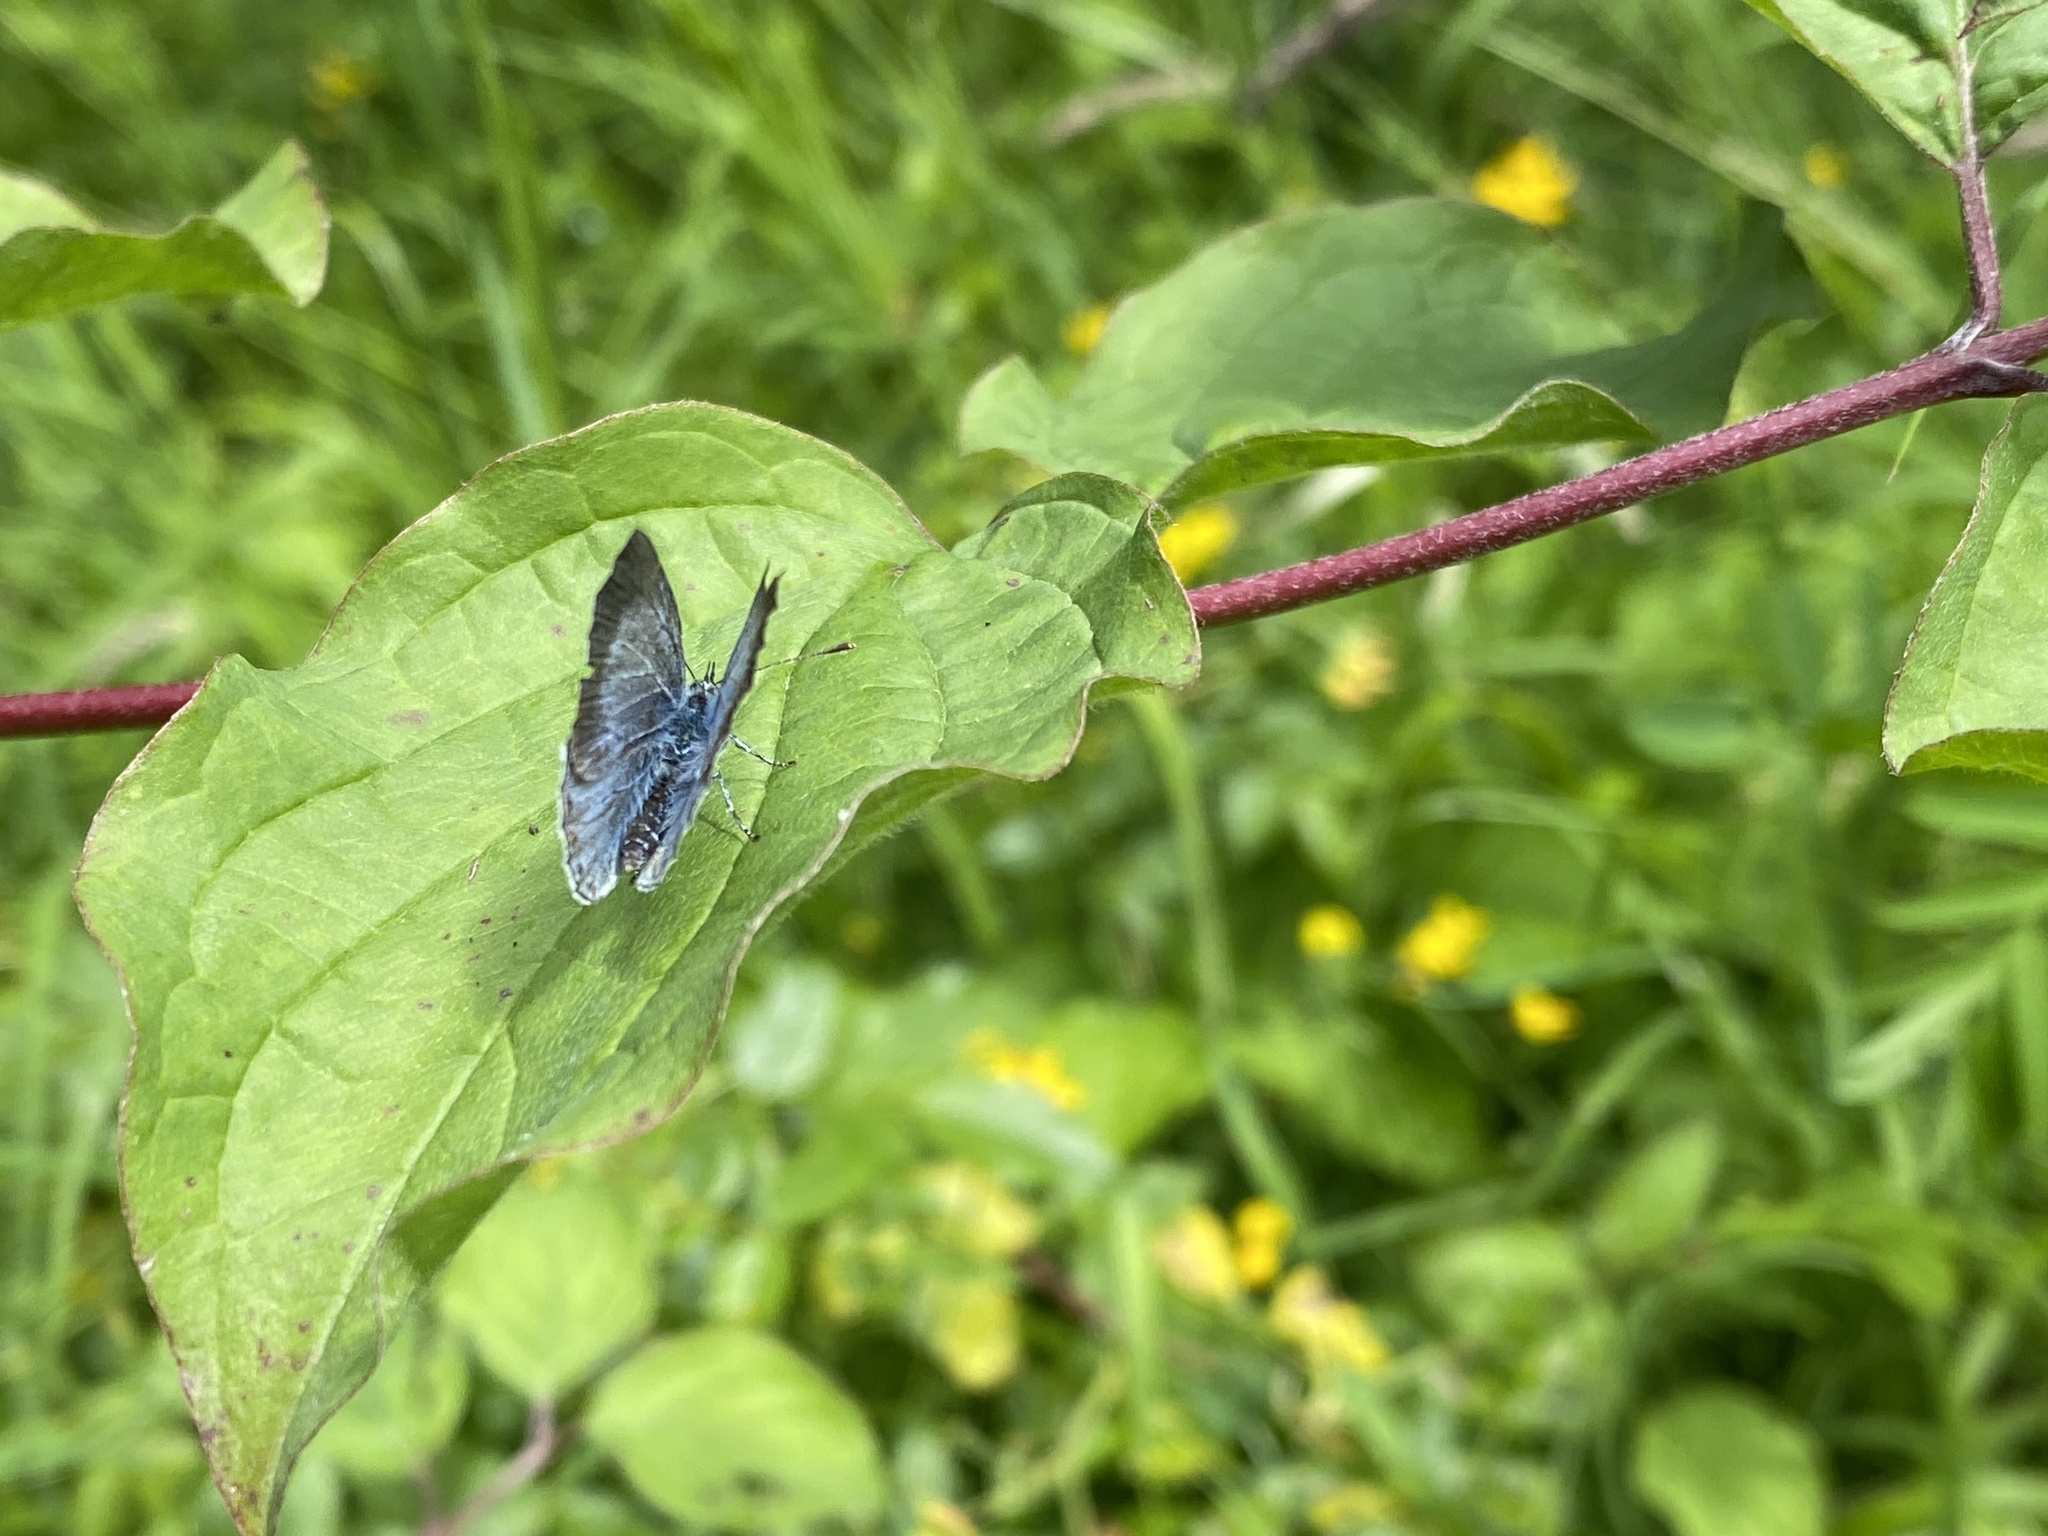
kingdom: Animalia
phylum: Arthropoda
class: Insecta
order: Lepidoptera
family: Lycaenidae
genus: Celastrina
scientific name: Celastrina argiolus
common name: Holly blue
